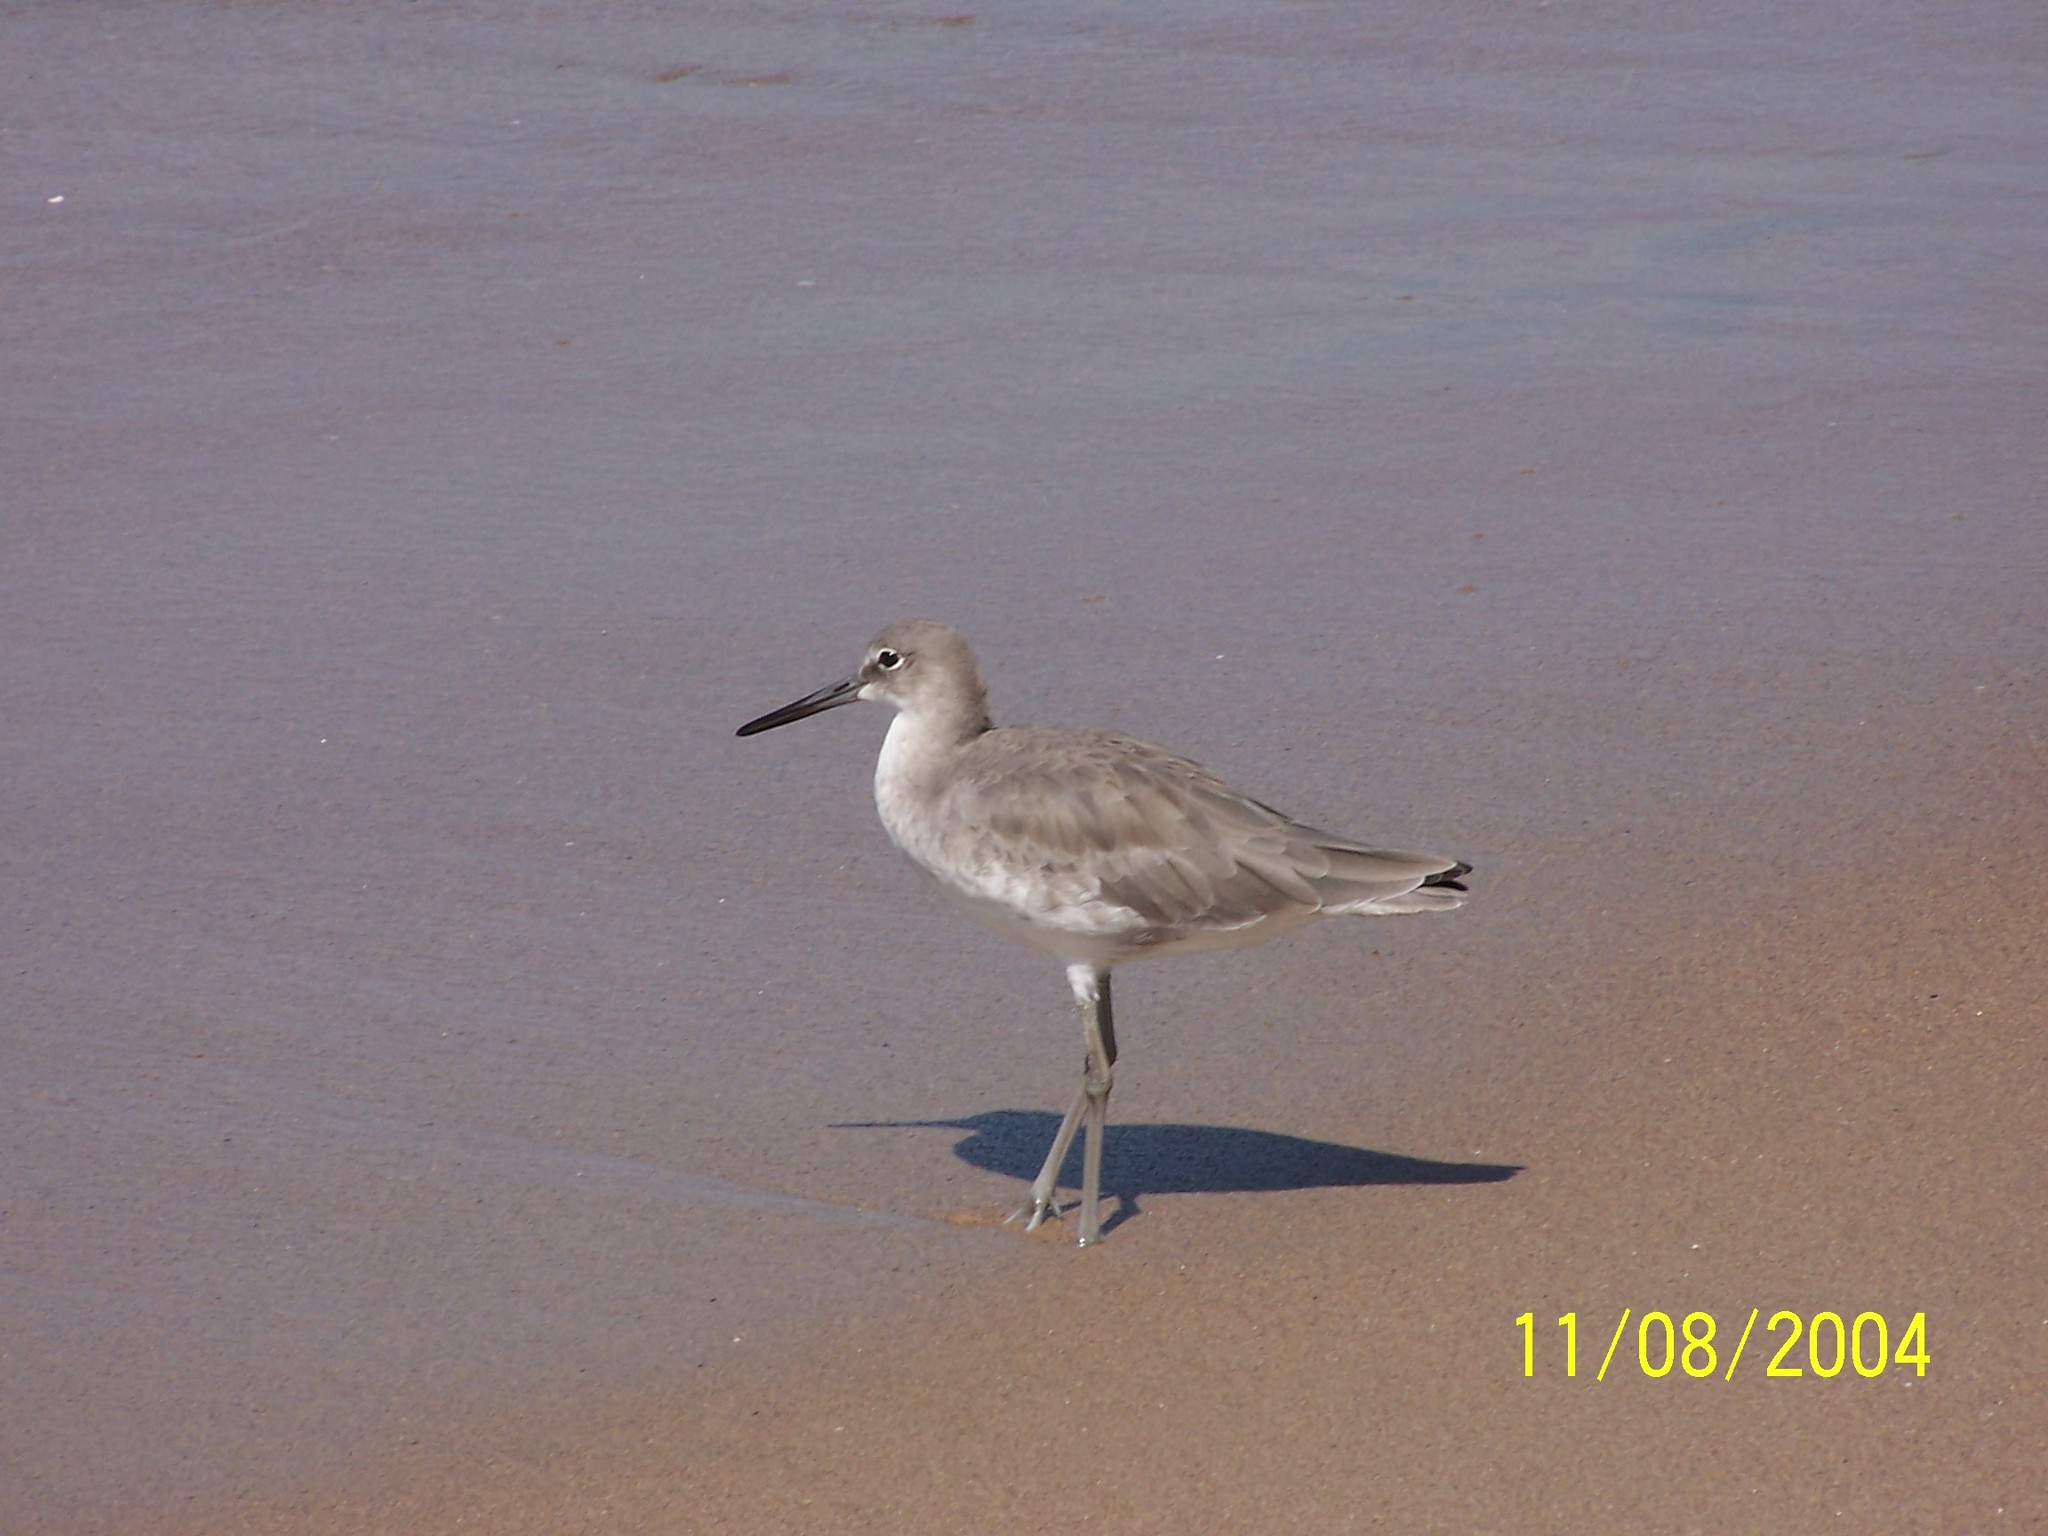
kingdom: Animalia
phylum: Chordata
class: Aves
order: Charadriiformes
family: Scolopacidae
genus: Tringa
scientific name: Tringa semipalmata
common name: Willet
